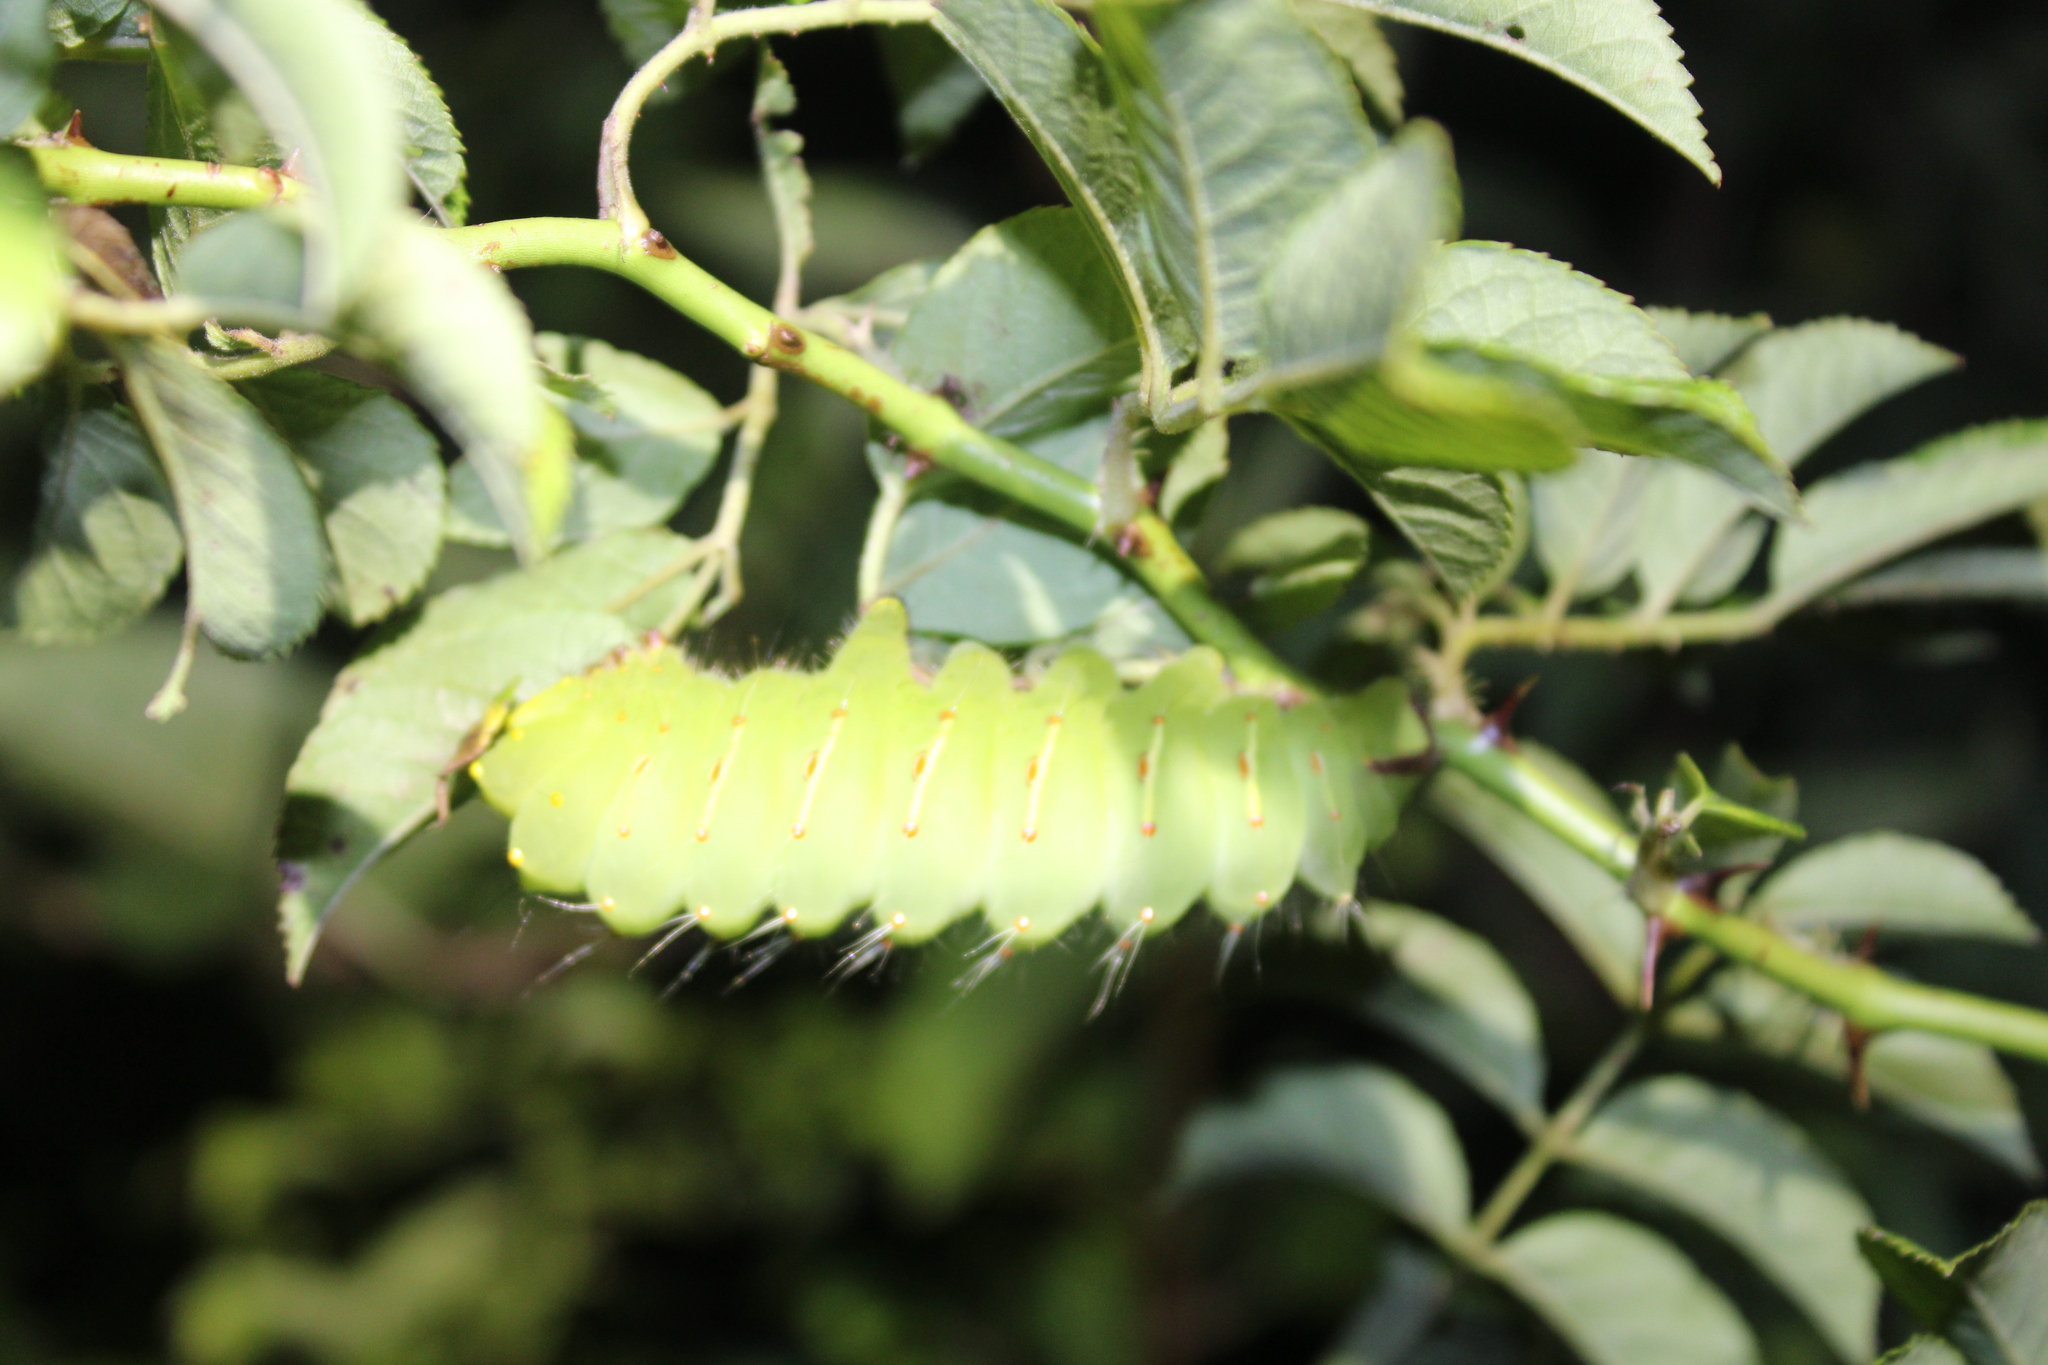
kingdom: Animalia
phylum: Arthropoda
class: Insecta
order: Lepidoptera
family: Saturniidae
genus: Antheraea
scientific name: Antheraea polyphemus
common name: Polyphemus moth
